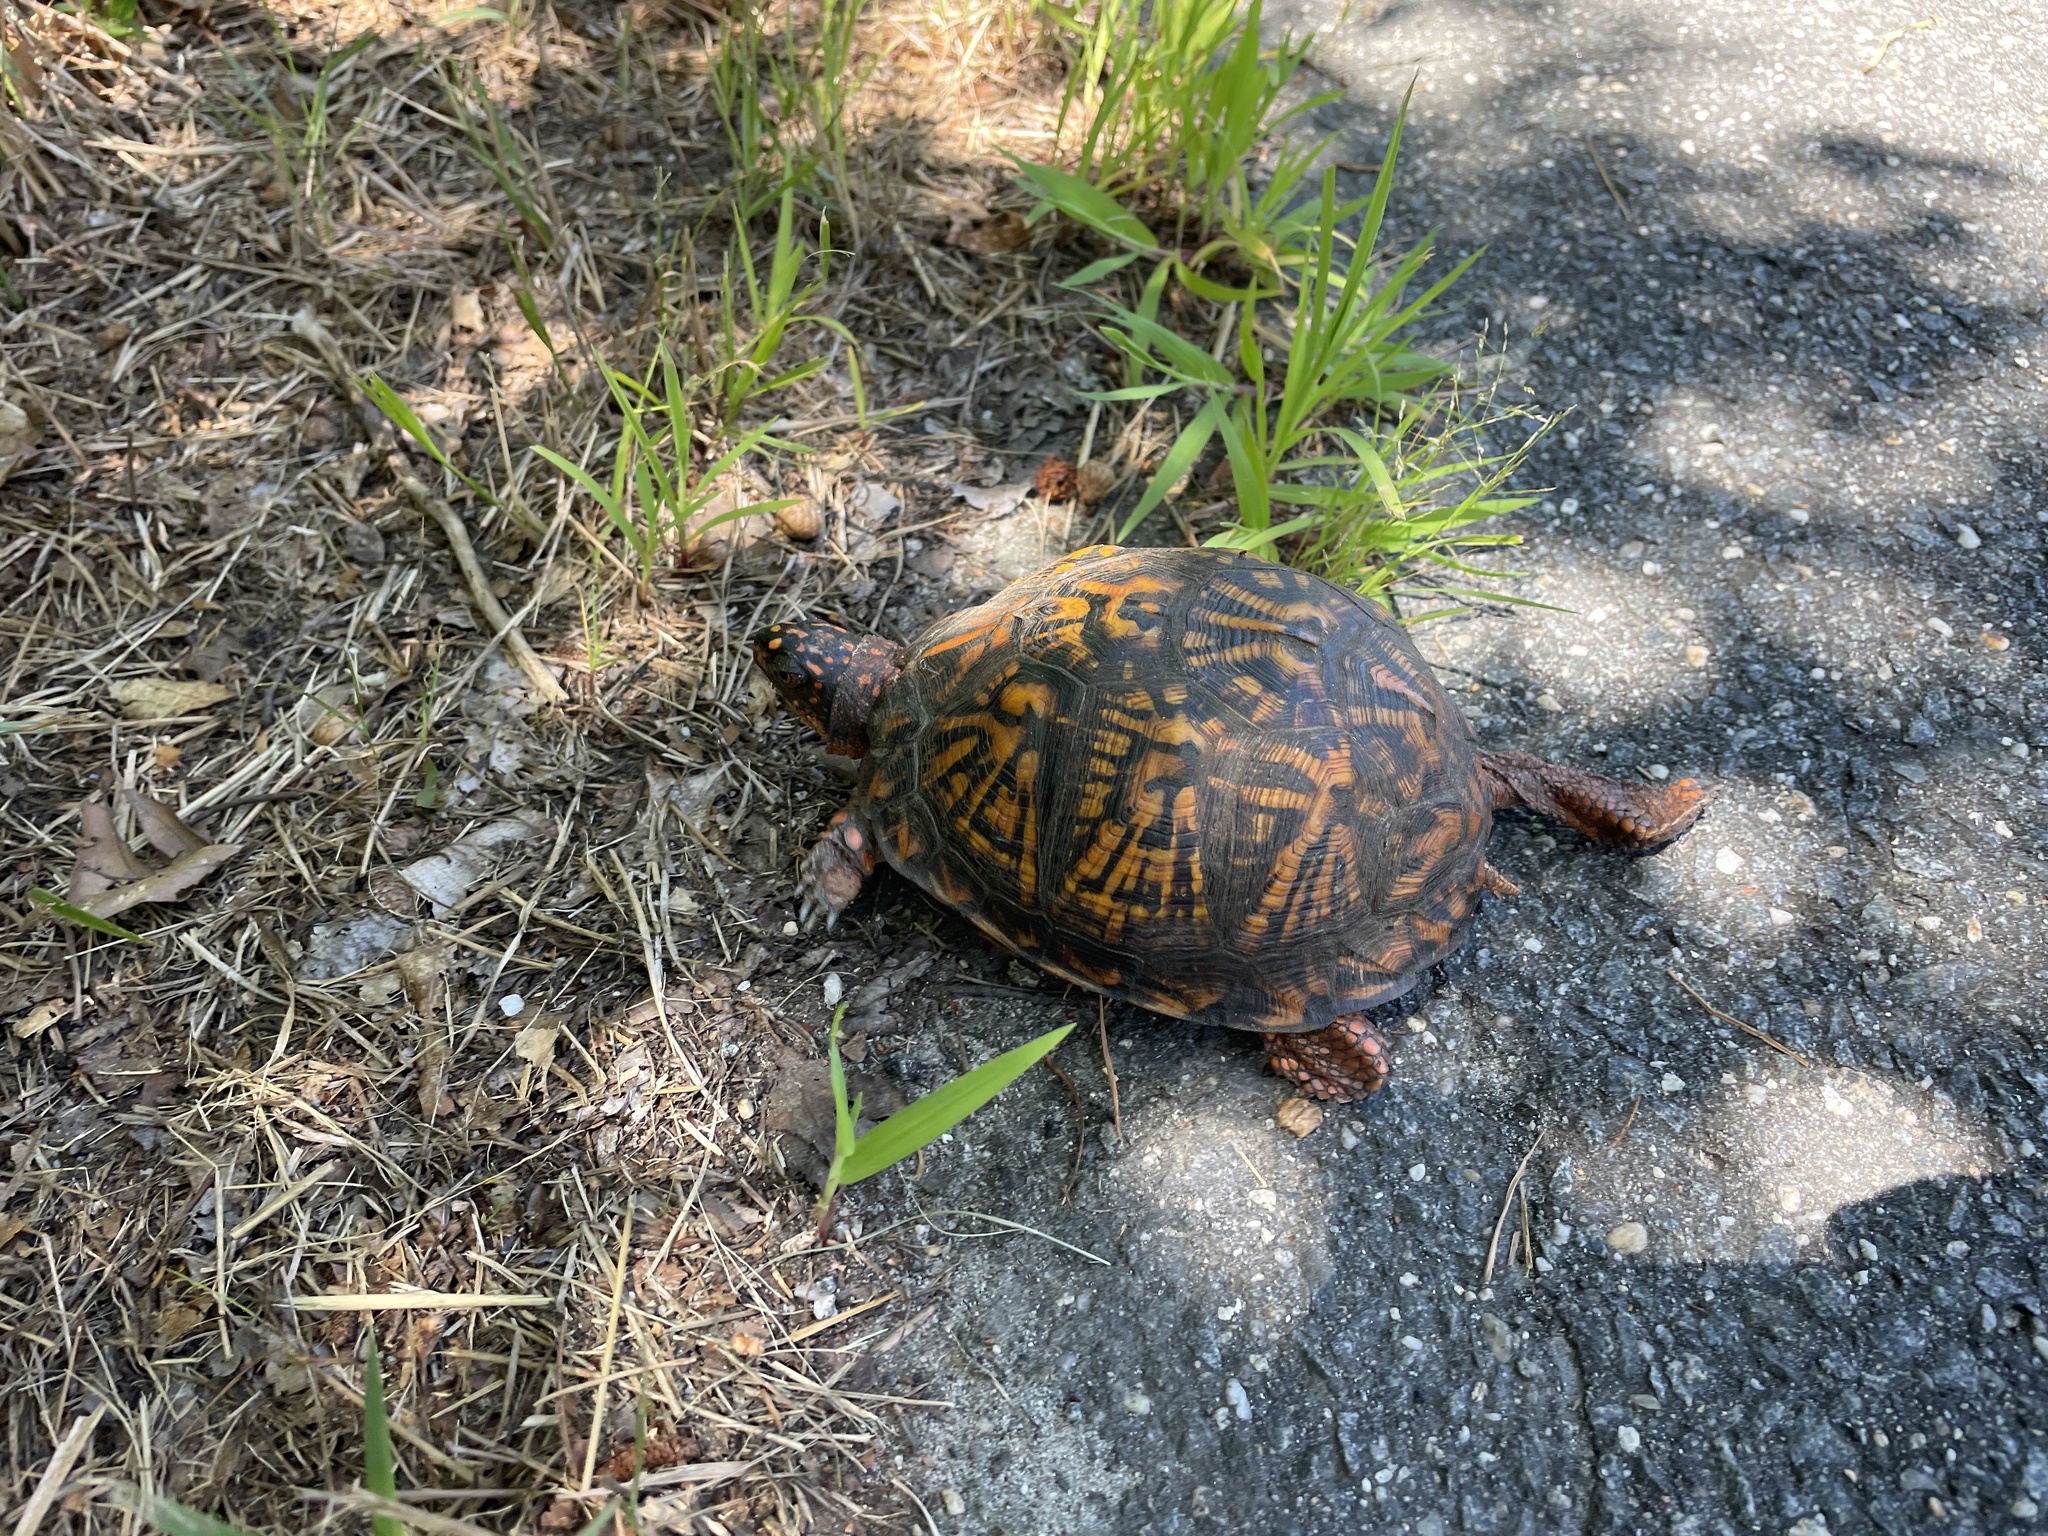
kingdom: Animalia
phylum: Chordata
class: Testudines
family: Emydidae
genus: Terrapene
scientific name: Terrapene carolina
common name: Common box turtle
